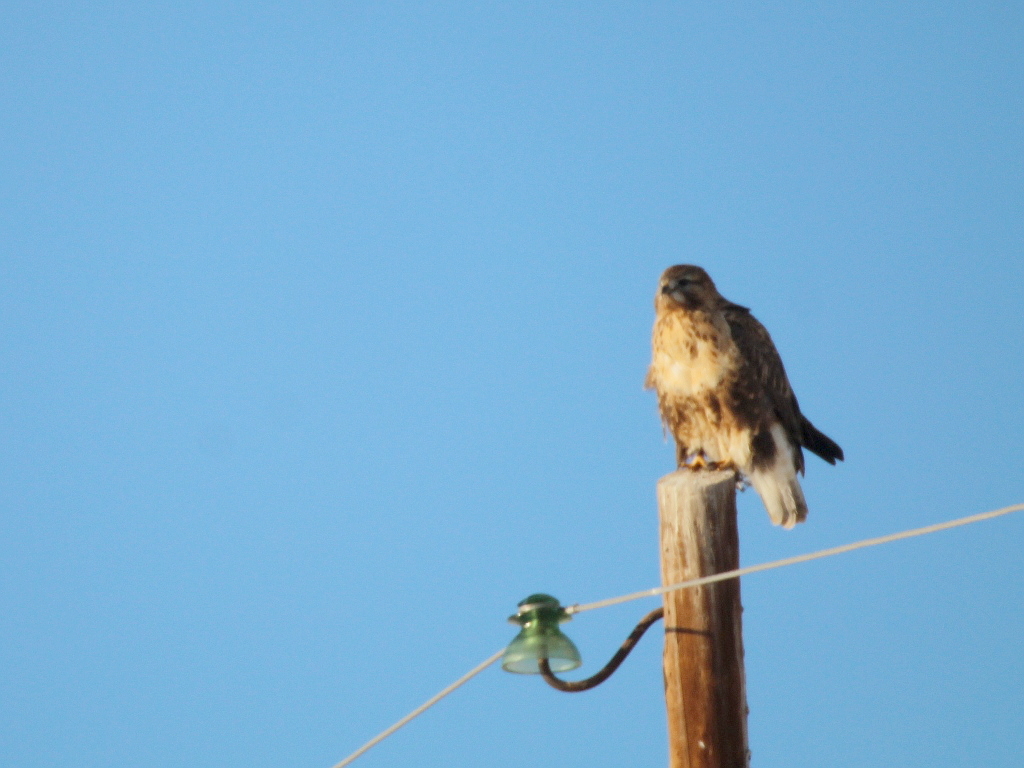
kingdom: Animalia
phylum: Chordata
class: Aves
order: Accipitriformes
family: Accipitridae
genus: Buteo
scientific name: Buteo hemilasius
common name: Upland buzzard
